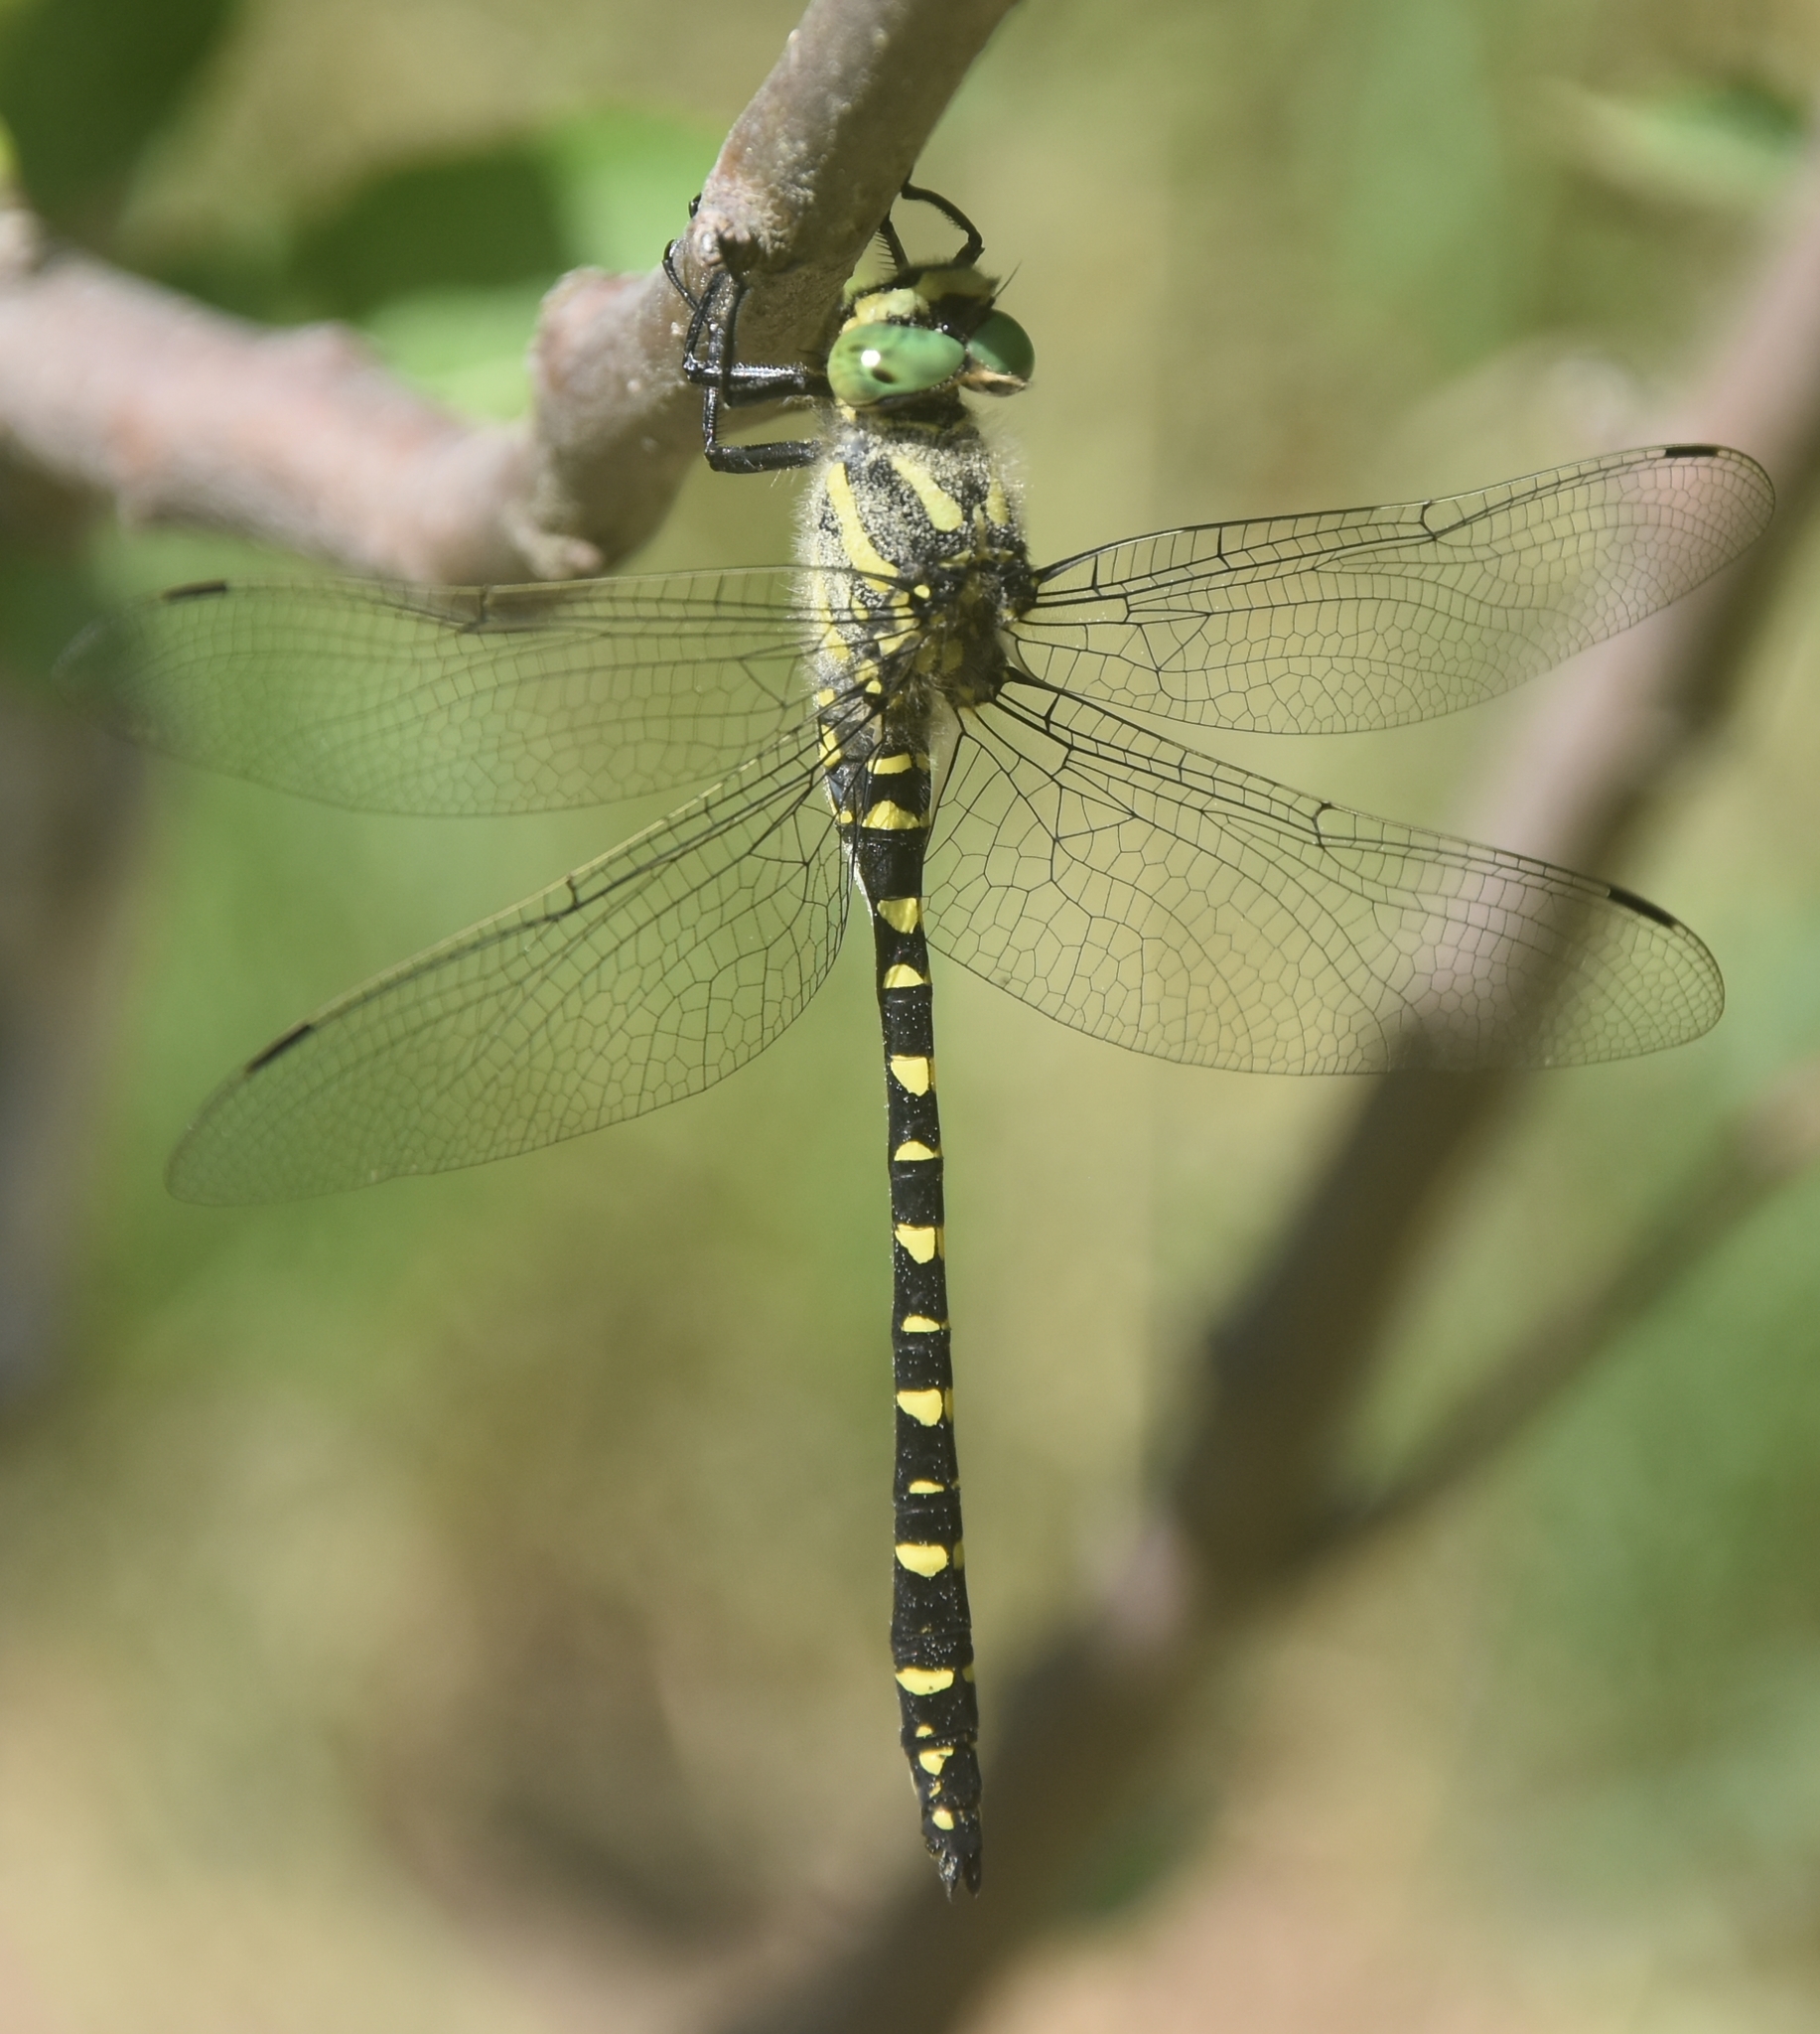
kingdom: Animalia
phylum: Arthropoda
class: Insecta
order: Odonata
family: Cordulegastridae
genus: Cordulegaster
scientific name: Cordulegaster brevistigma
